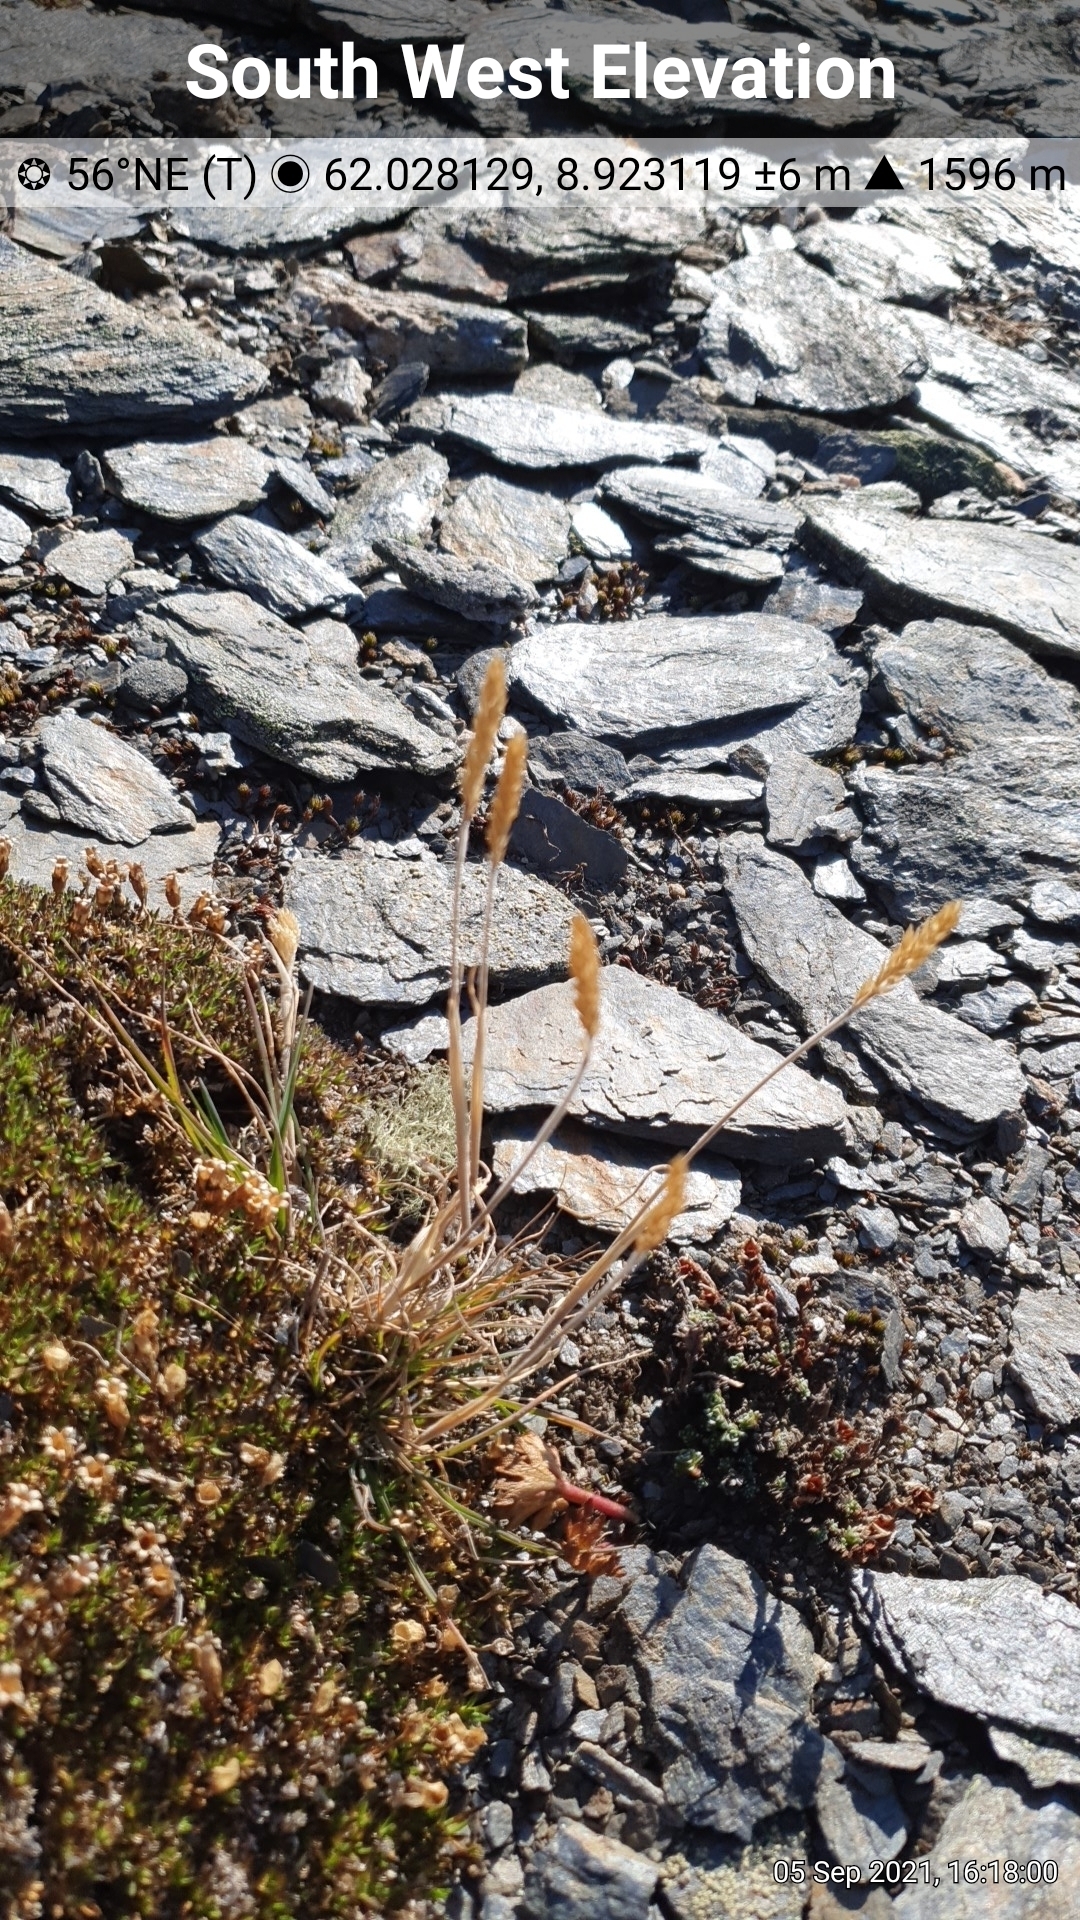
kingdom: Plantae
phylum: Tracheophyta
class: Liliopsida
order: Poales
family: Poaceae
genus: Koeleria
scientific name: Koeleria spicata
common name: Mountain trisetum
